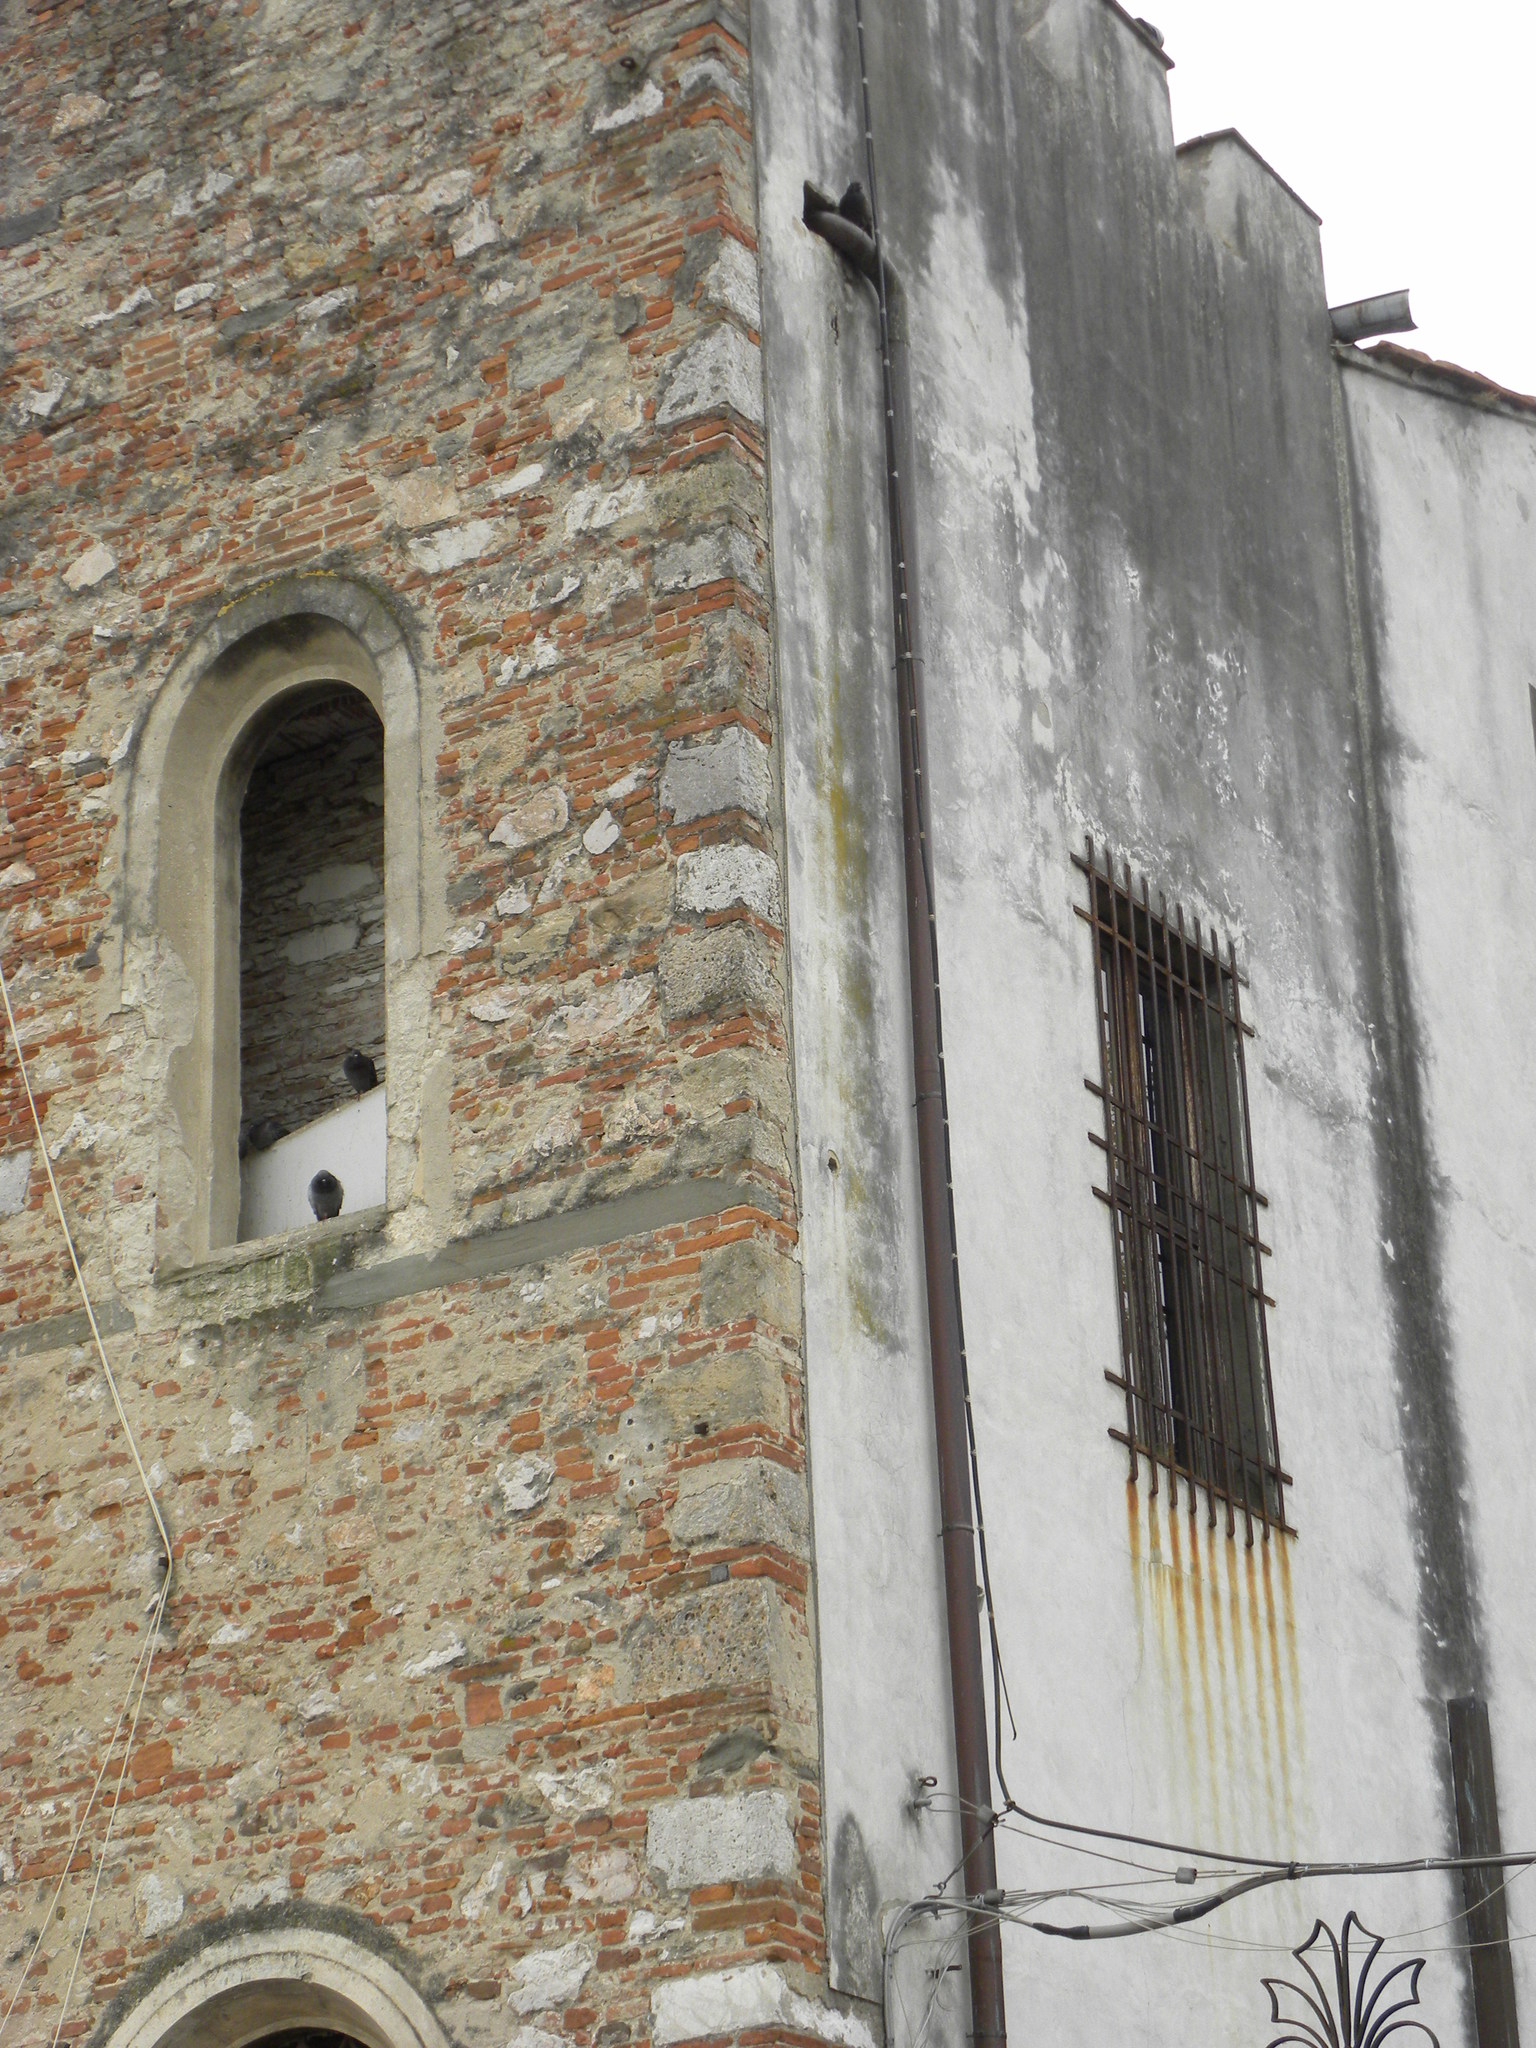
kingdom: Animalia
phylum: Chordata
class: Aves
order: Columbiformes
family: Columbidae
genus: Columba
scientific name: Columba livia
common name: Rock pigeon
